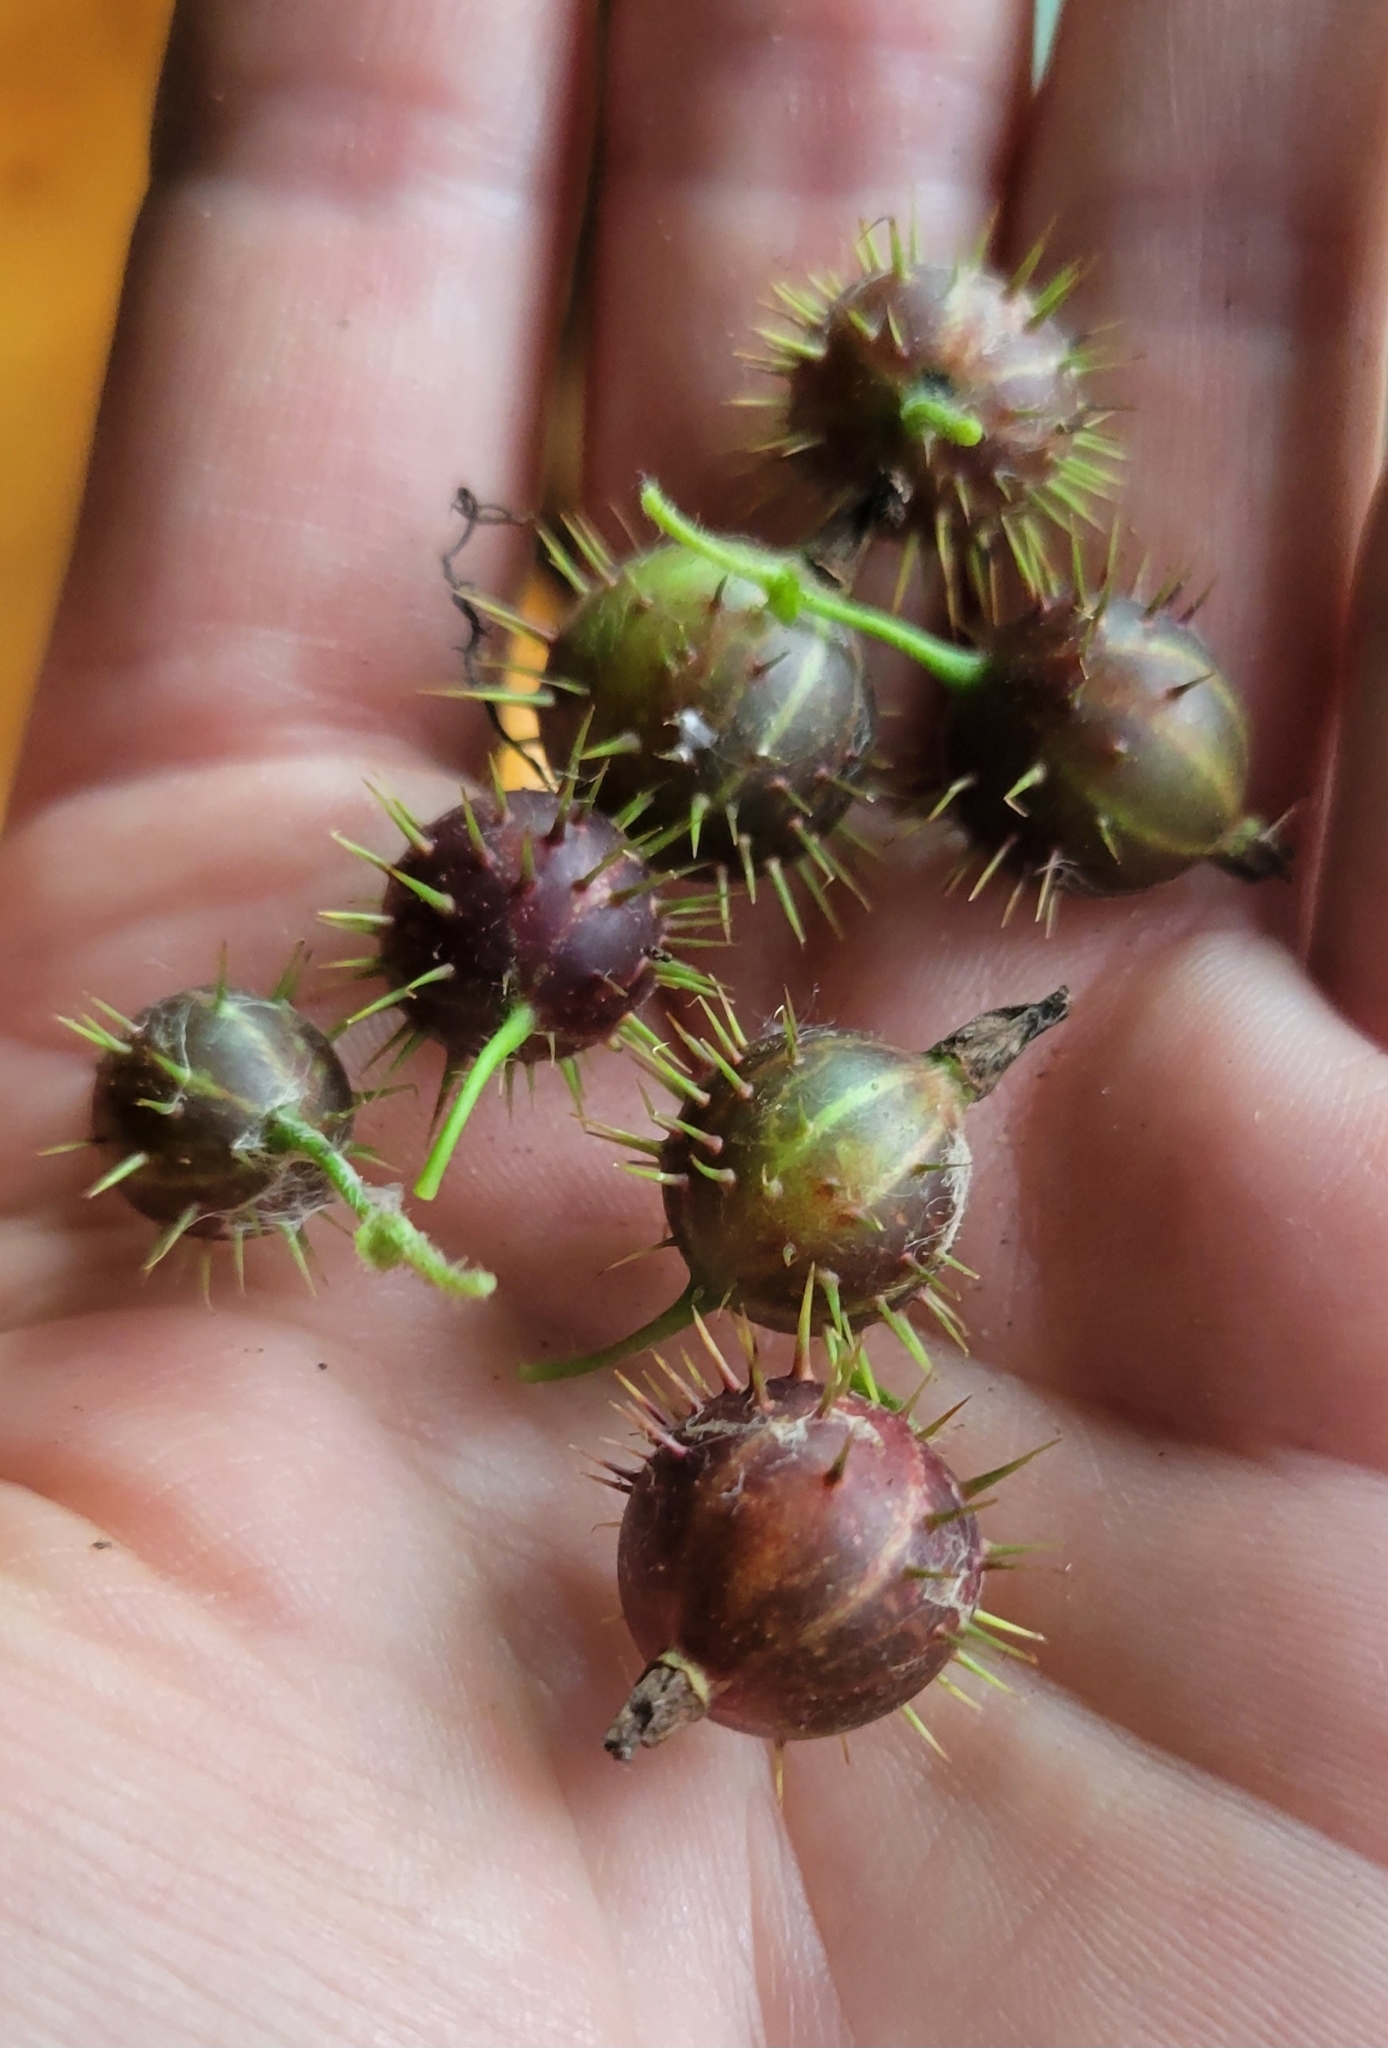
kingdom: Plantae
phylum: Tracheophyta
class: Magnoliopsida
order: Saxifragales
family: Grossulariaceae
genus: Ribes
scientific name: Ribes cynosbati
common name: American gooseberry
